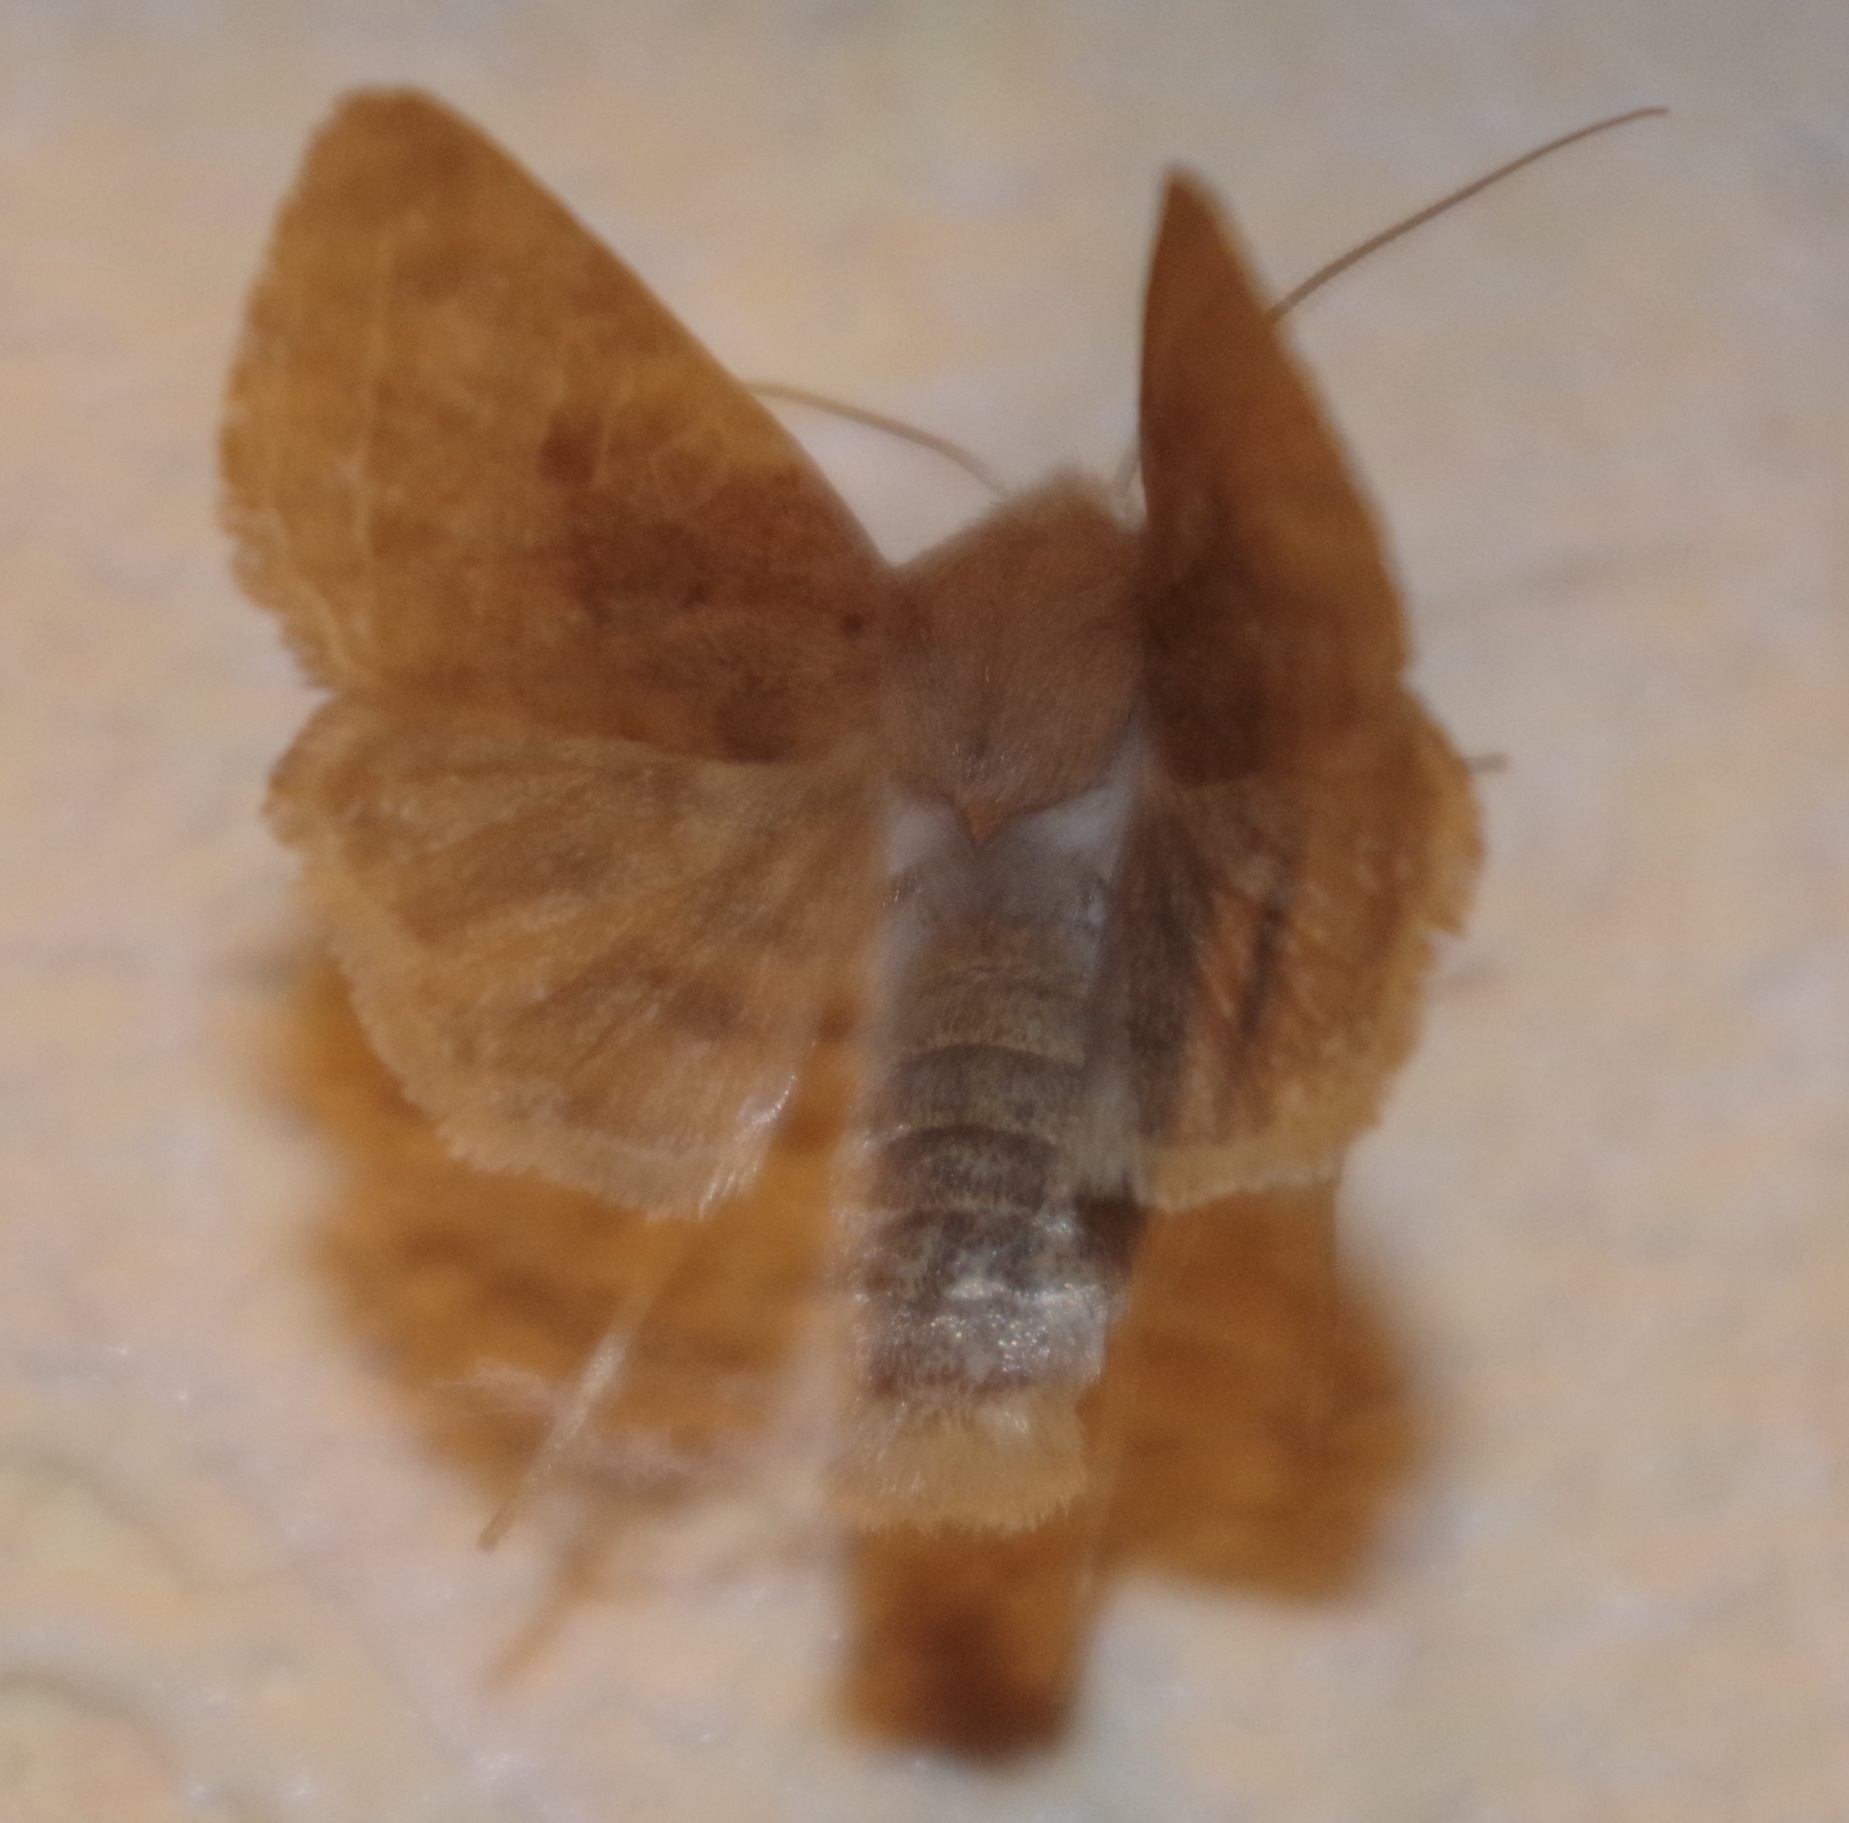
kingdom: Animalia
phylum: Arthropoda
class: Insecta
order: Lepidoptera
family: Noctuidae
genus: Agrochola
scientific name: Agrochola macilenta
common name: Yellow-line quaker
